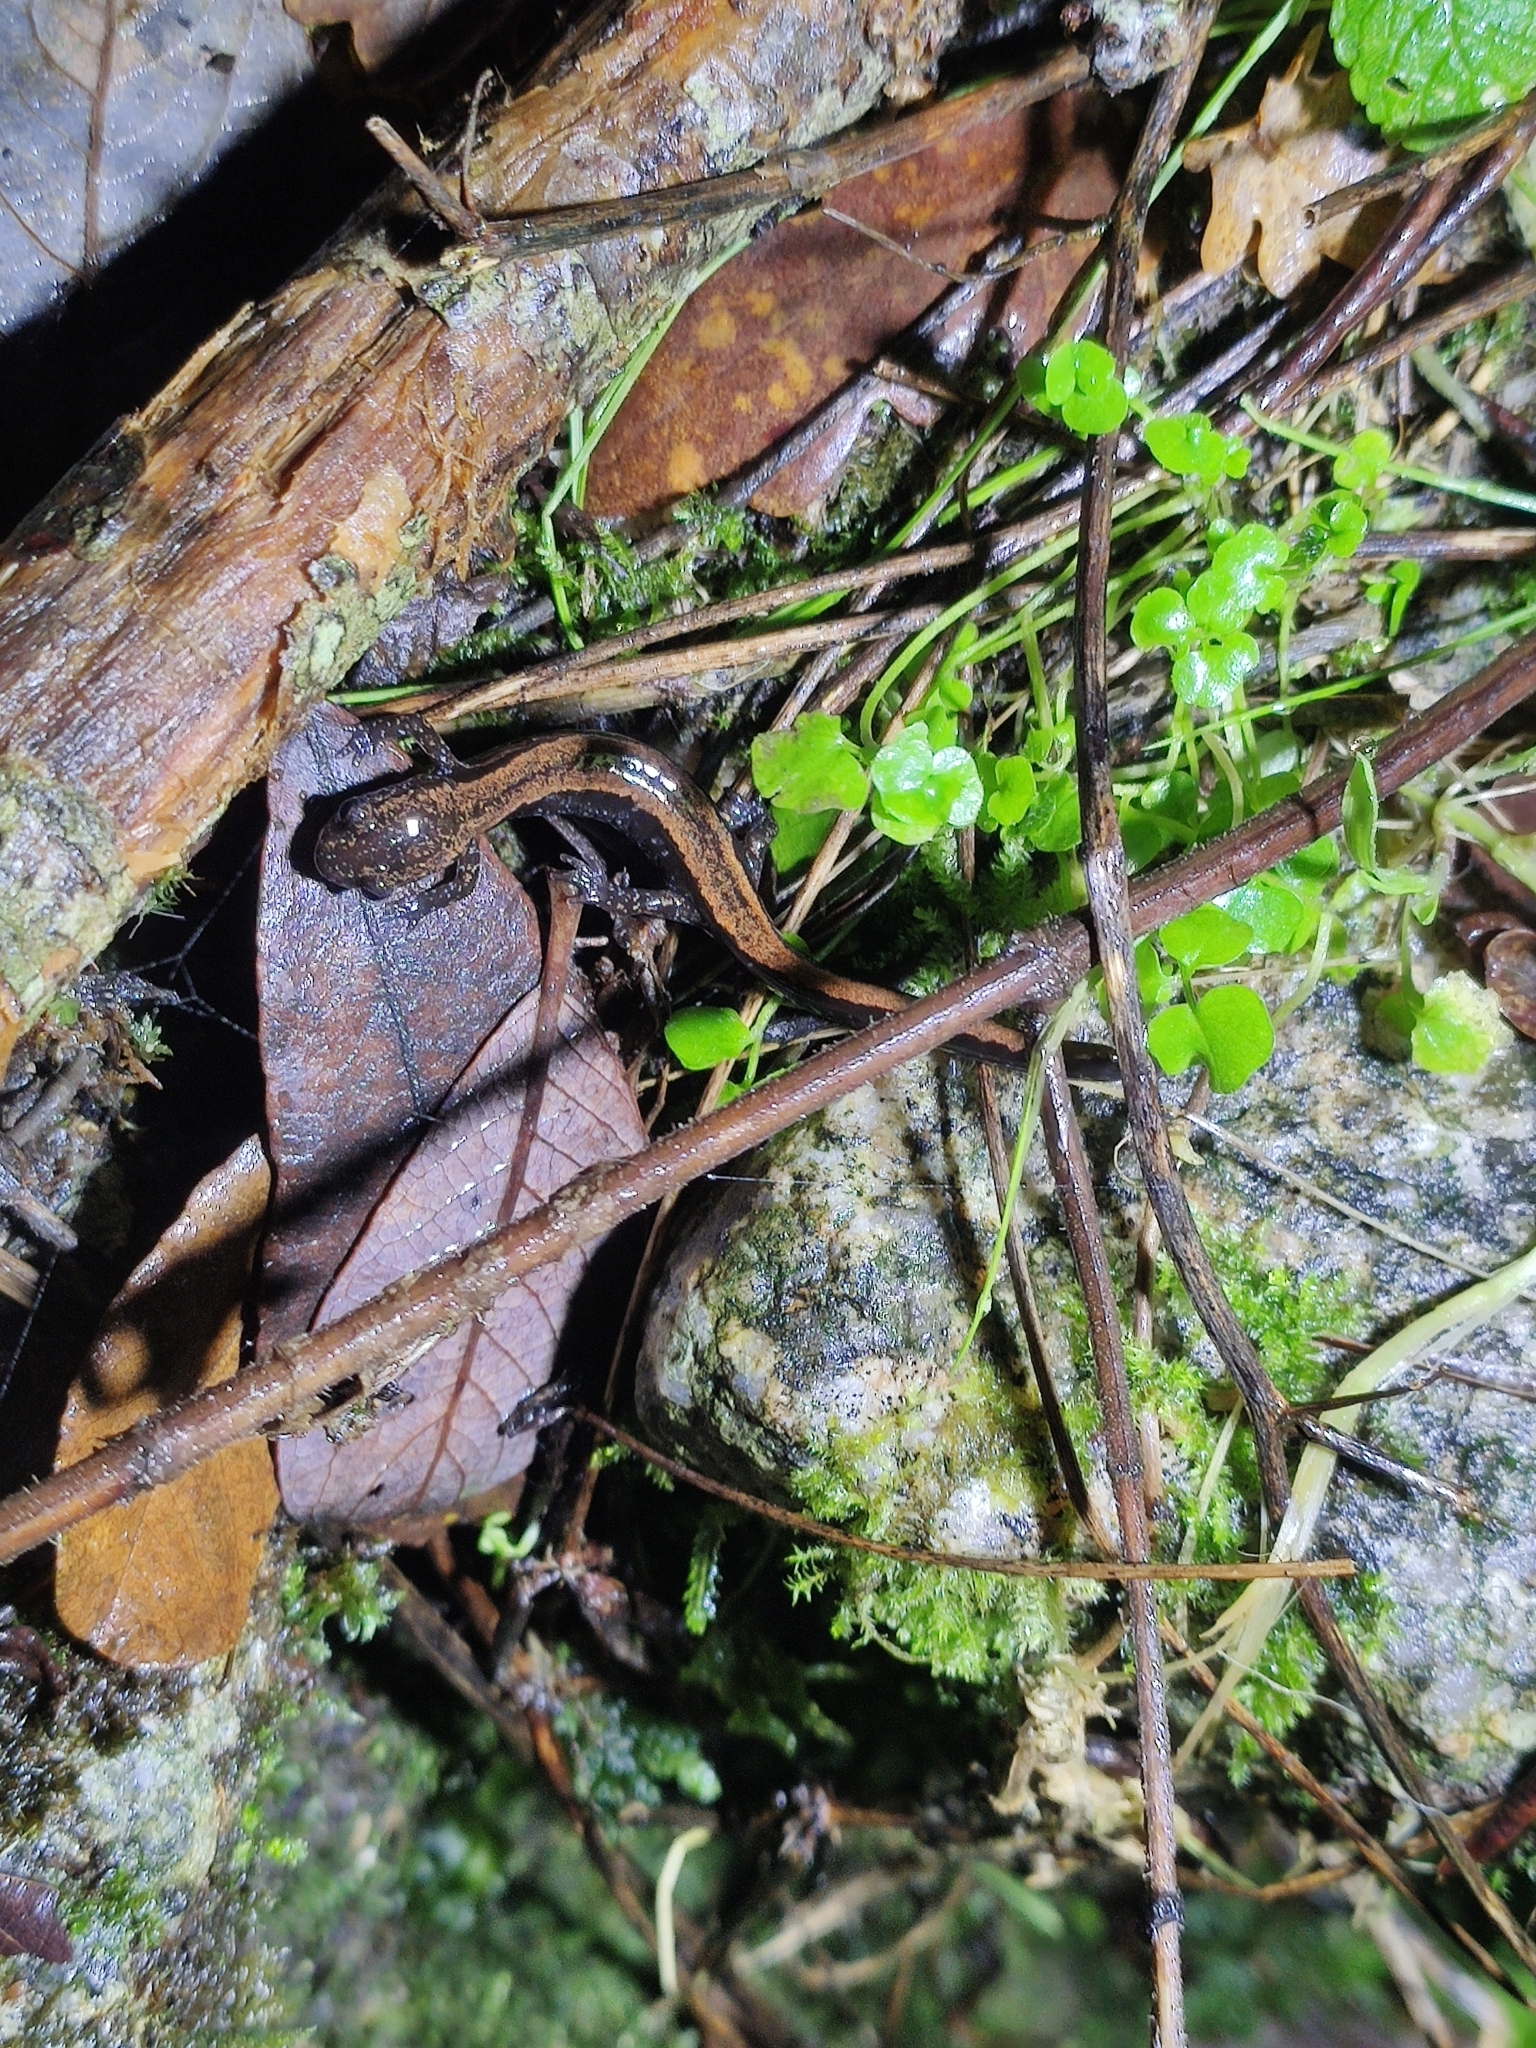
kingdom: Animalia
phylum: Chordata
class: Amphibia
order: Caudata
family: Salamandridae
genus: Chioglossa
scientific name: Chioglossa lusitanica
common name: Gold-striped salamander
